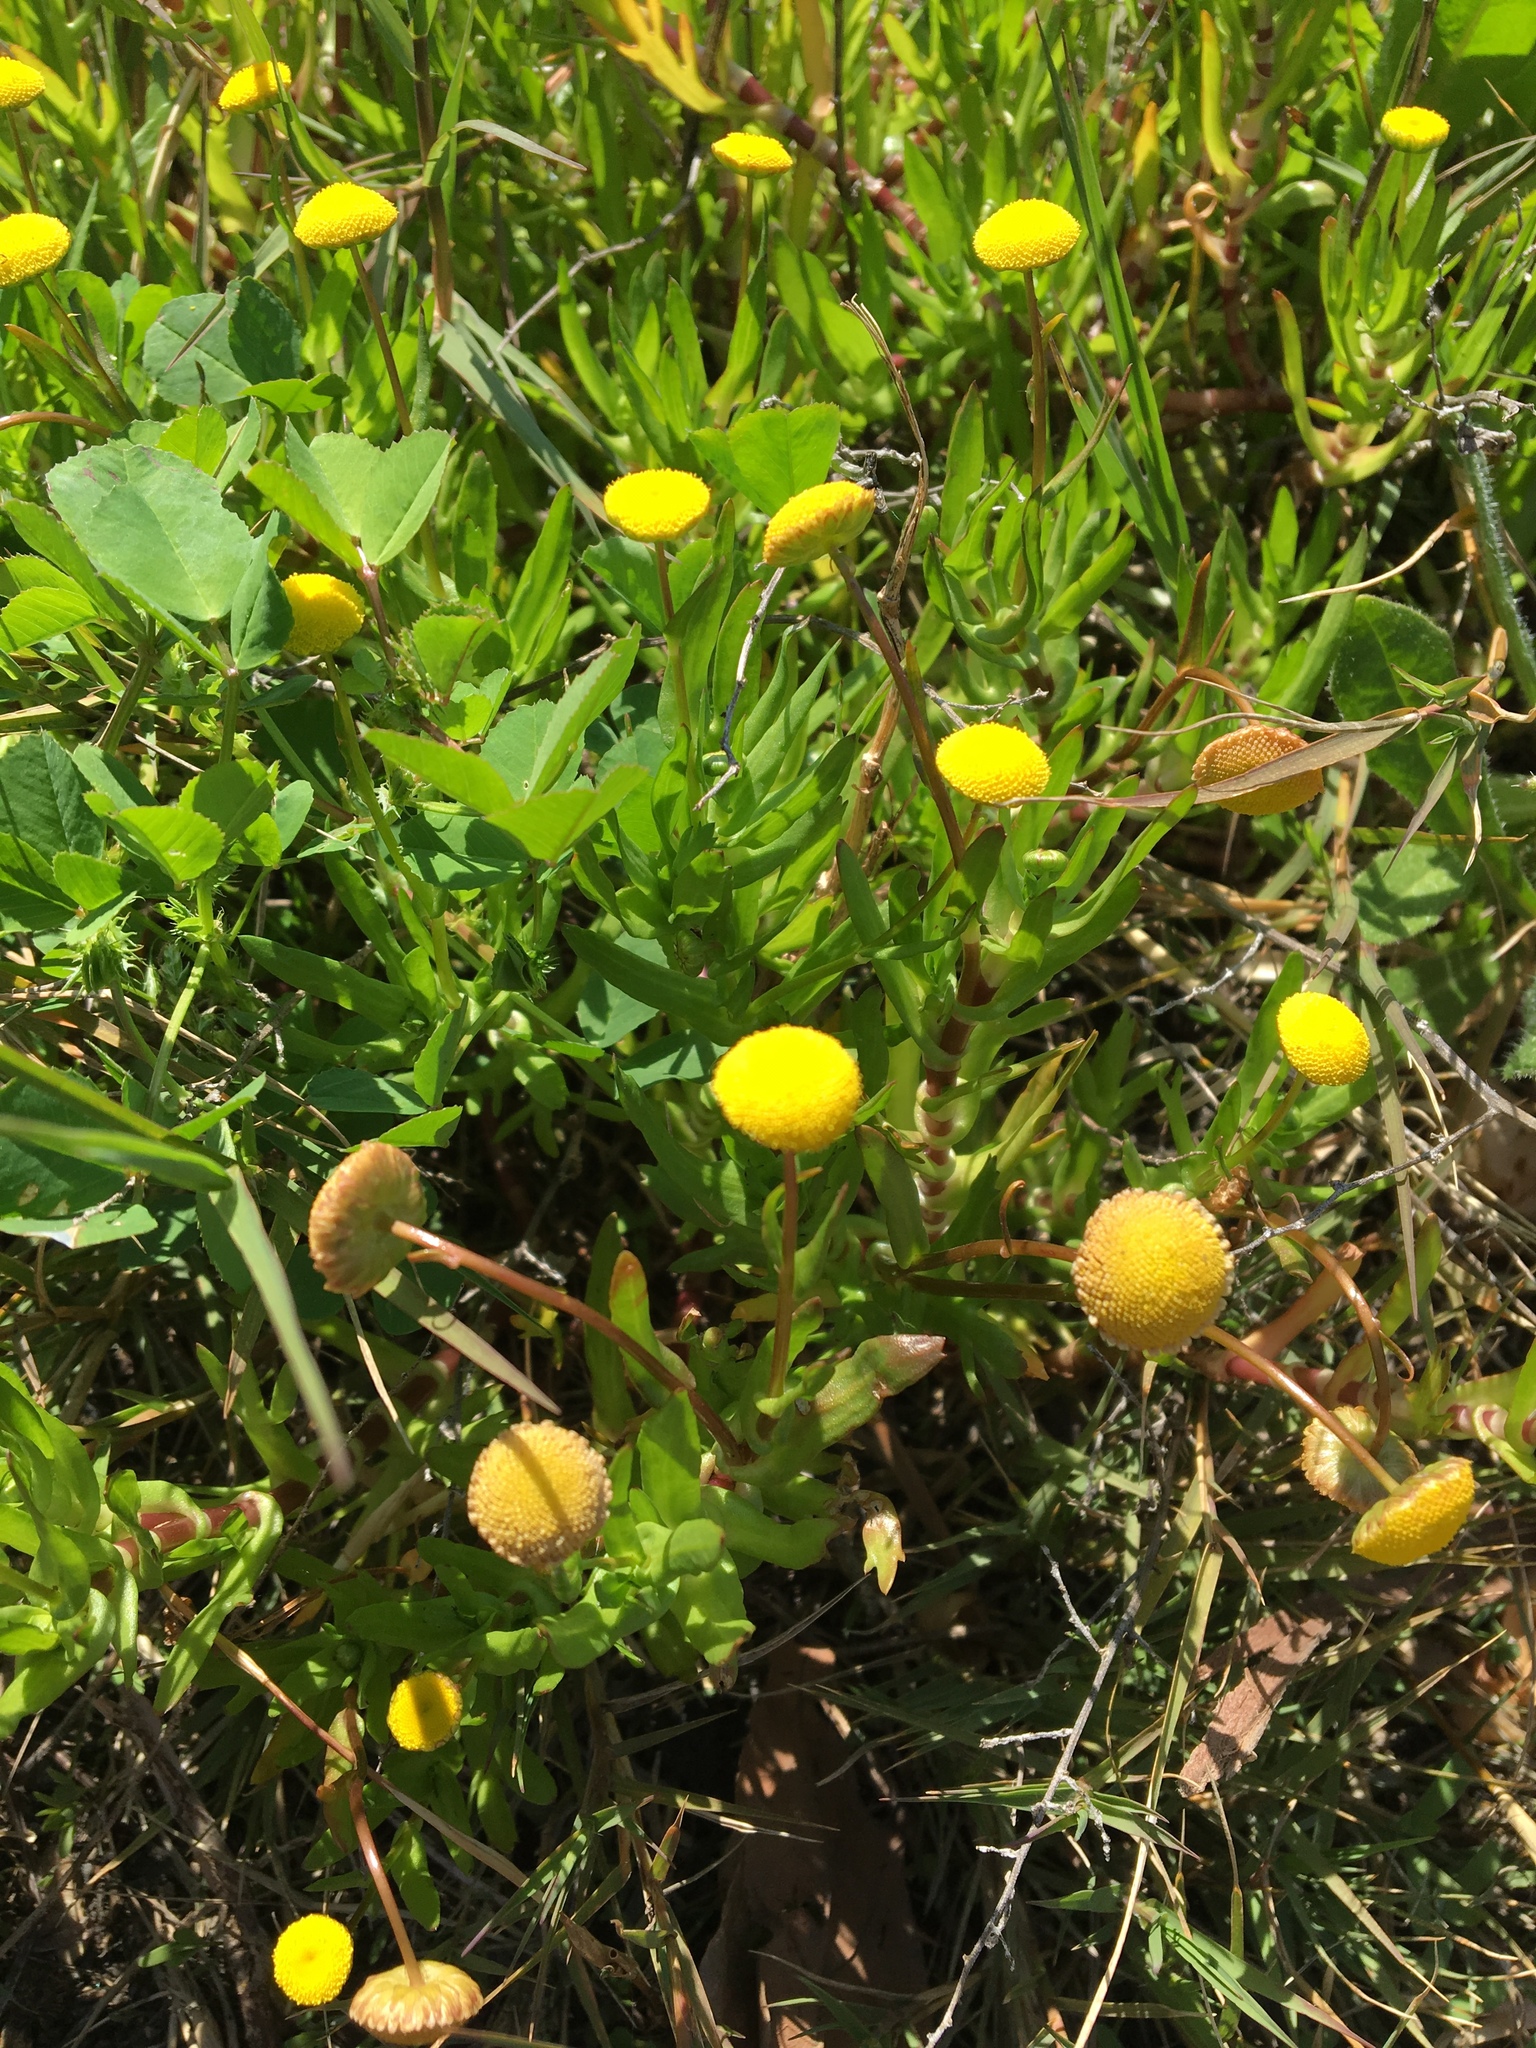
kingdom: Plantae
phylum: Tracheophyta
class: Magnoliopsida
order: Asterales
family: Asteraceae
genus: Cotula
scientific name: Cotula coronopifolia
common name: Buttonweed
